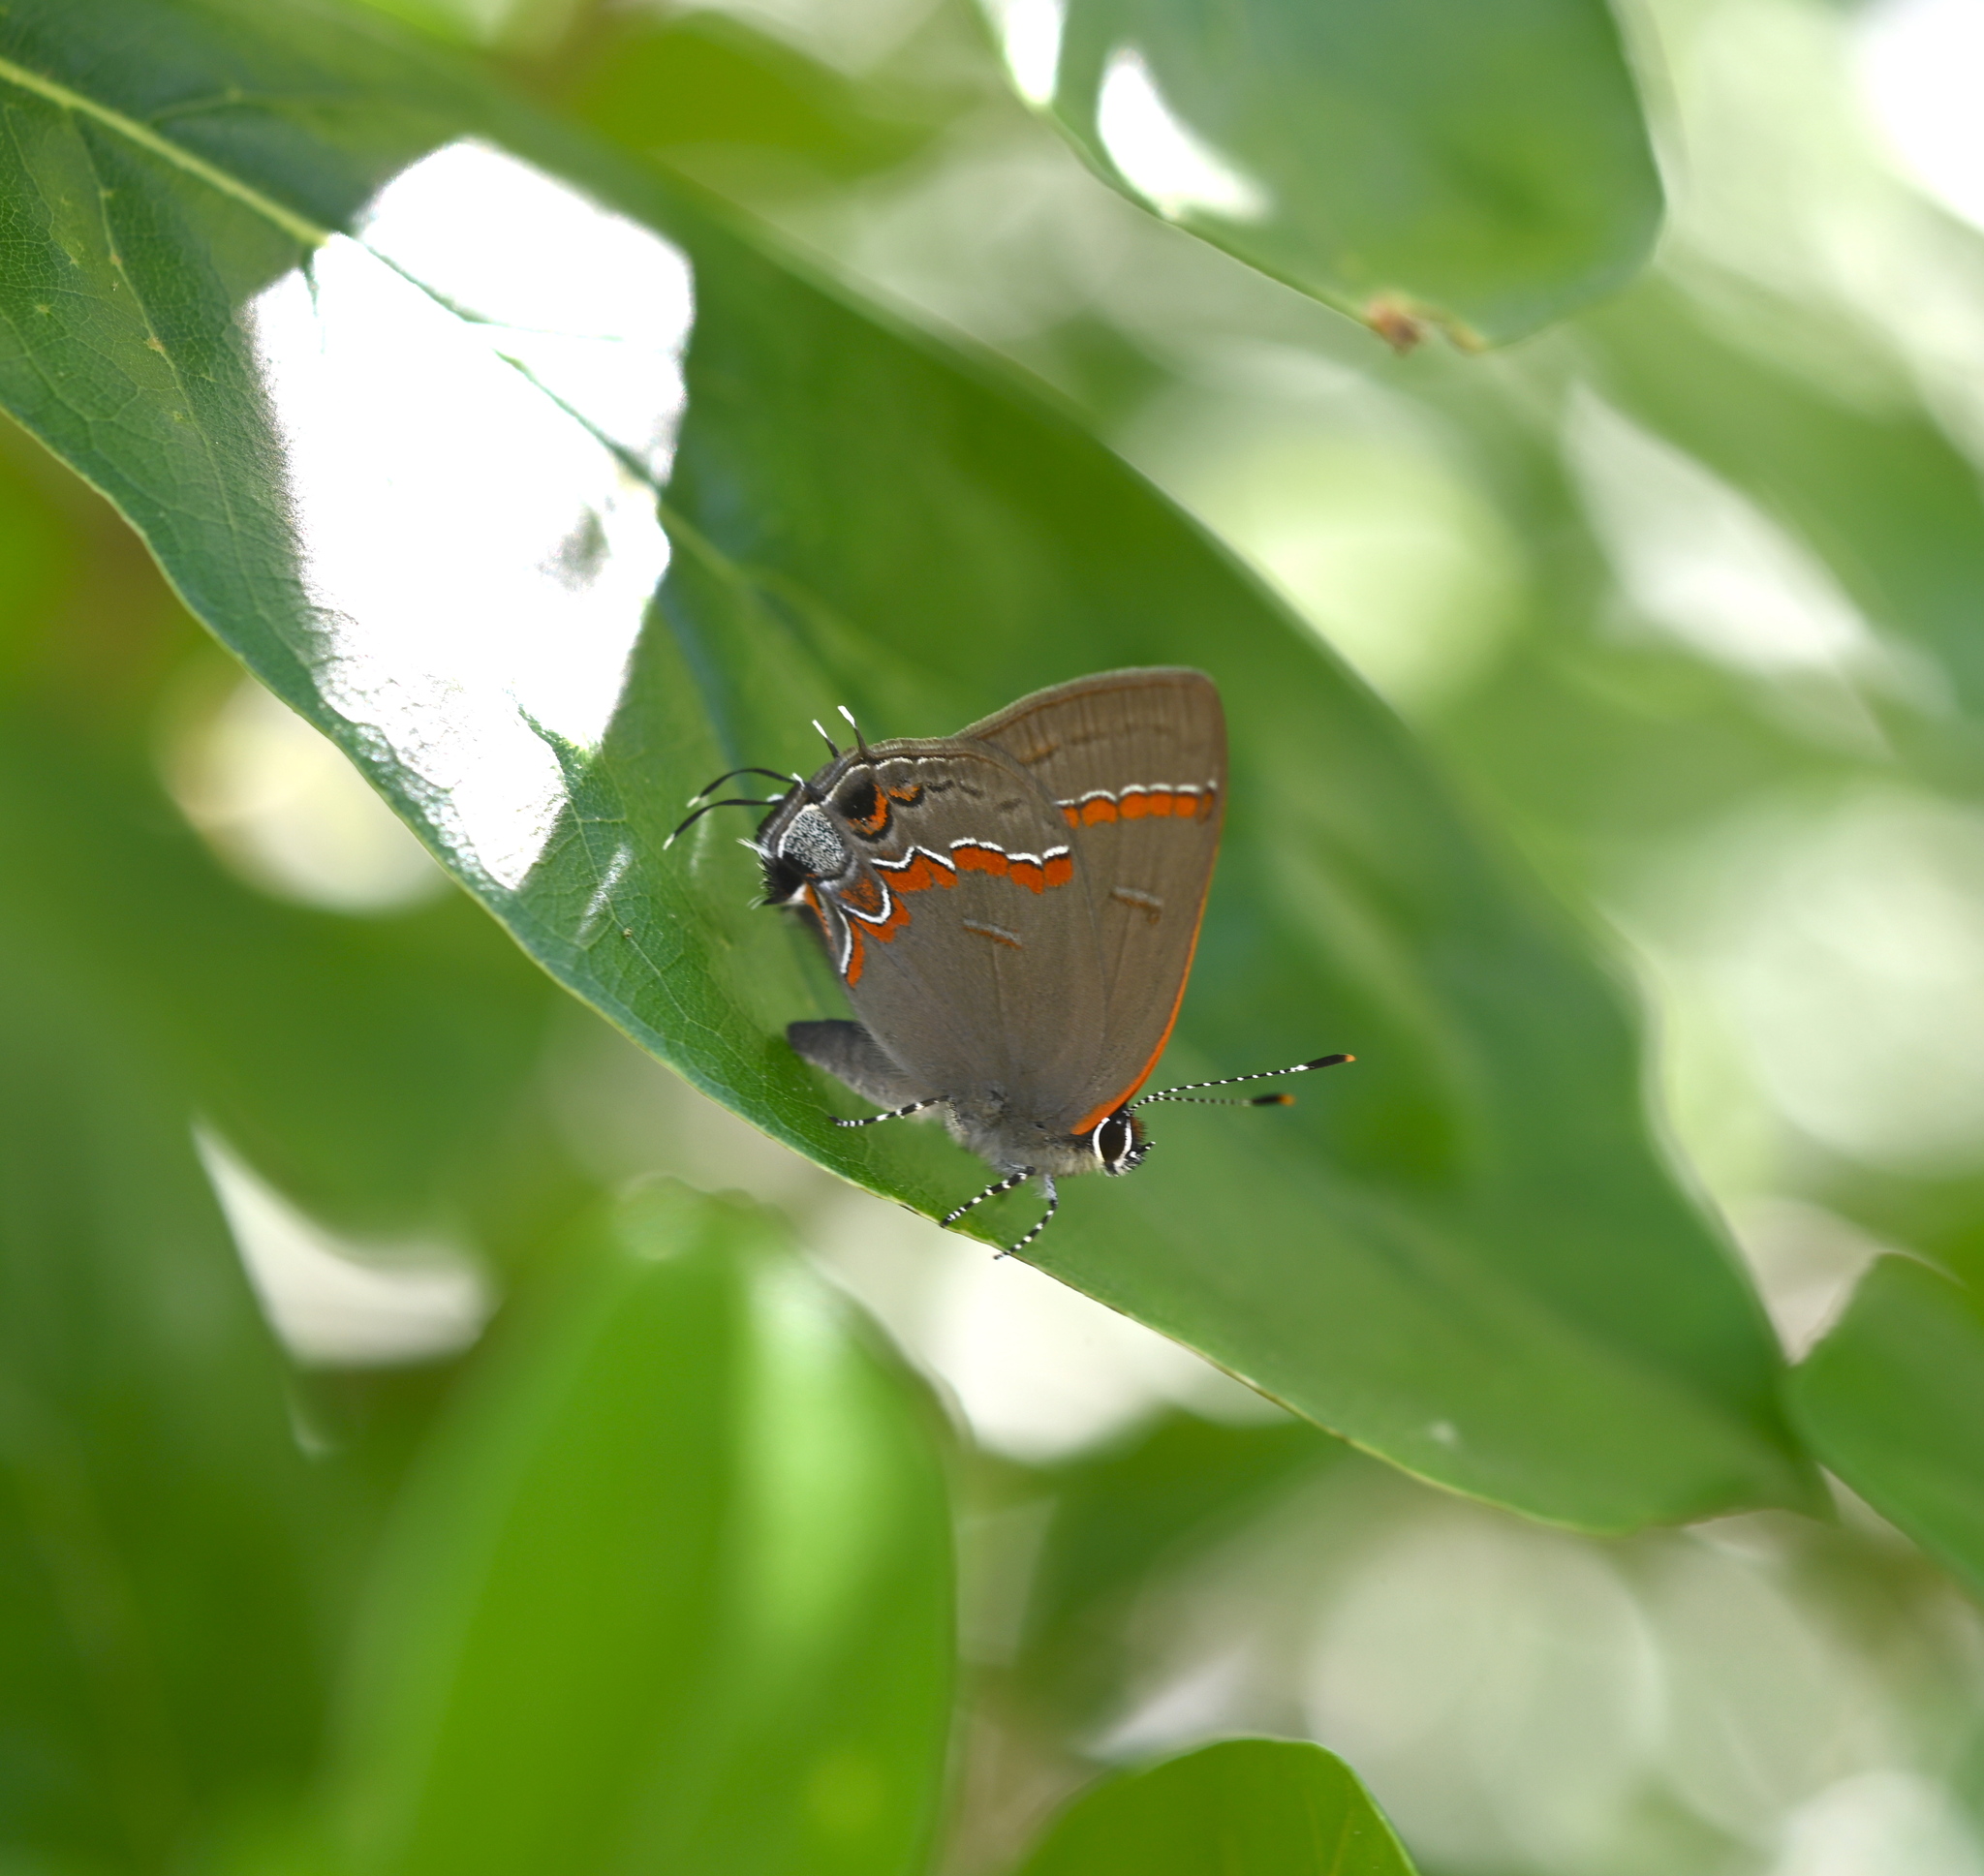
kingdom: Animalia
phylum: Arthropoda
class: Insecta
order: Lepidoptera
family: Lycaenidae
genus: Calycopis
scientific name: Calycopis cecrops
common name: Red-banded hairstreak
